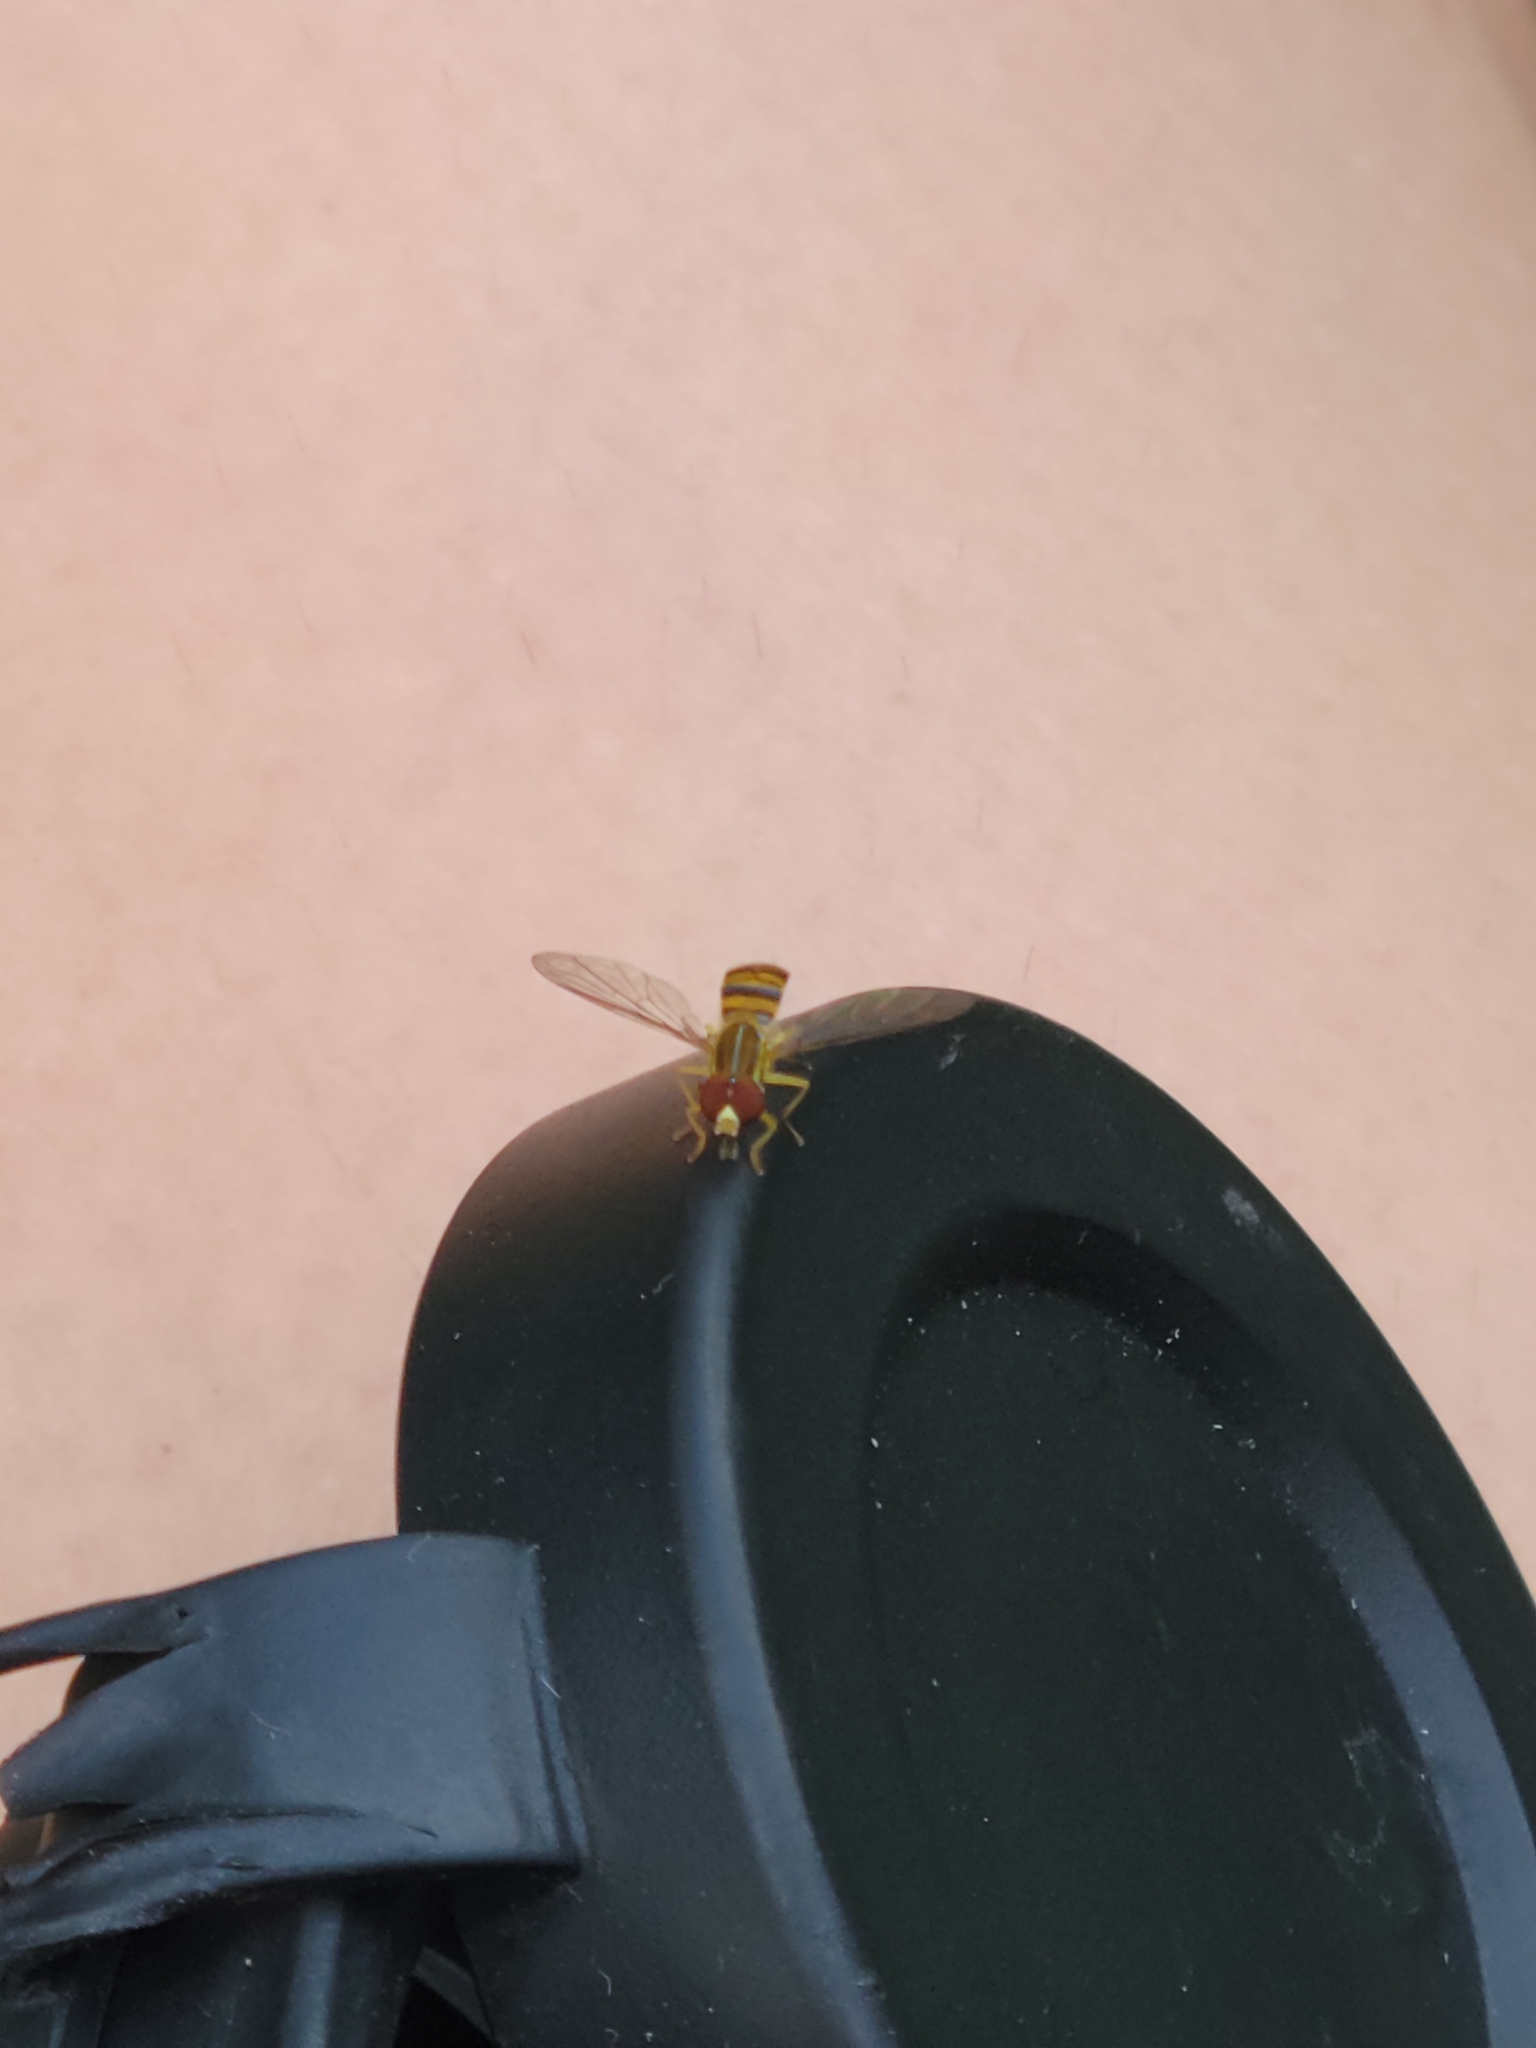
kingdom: Animalia
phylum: Arthropoda
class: Insecta
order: Diptera
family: Syrphidae
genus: Toxomerus
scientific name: Toxomerus politus
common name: Maize calligrapher
